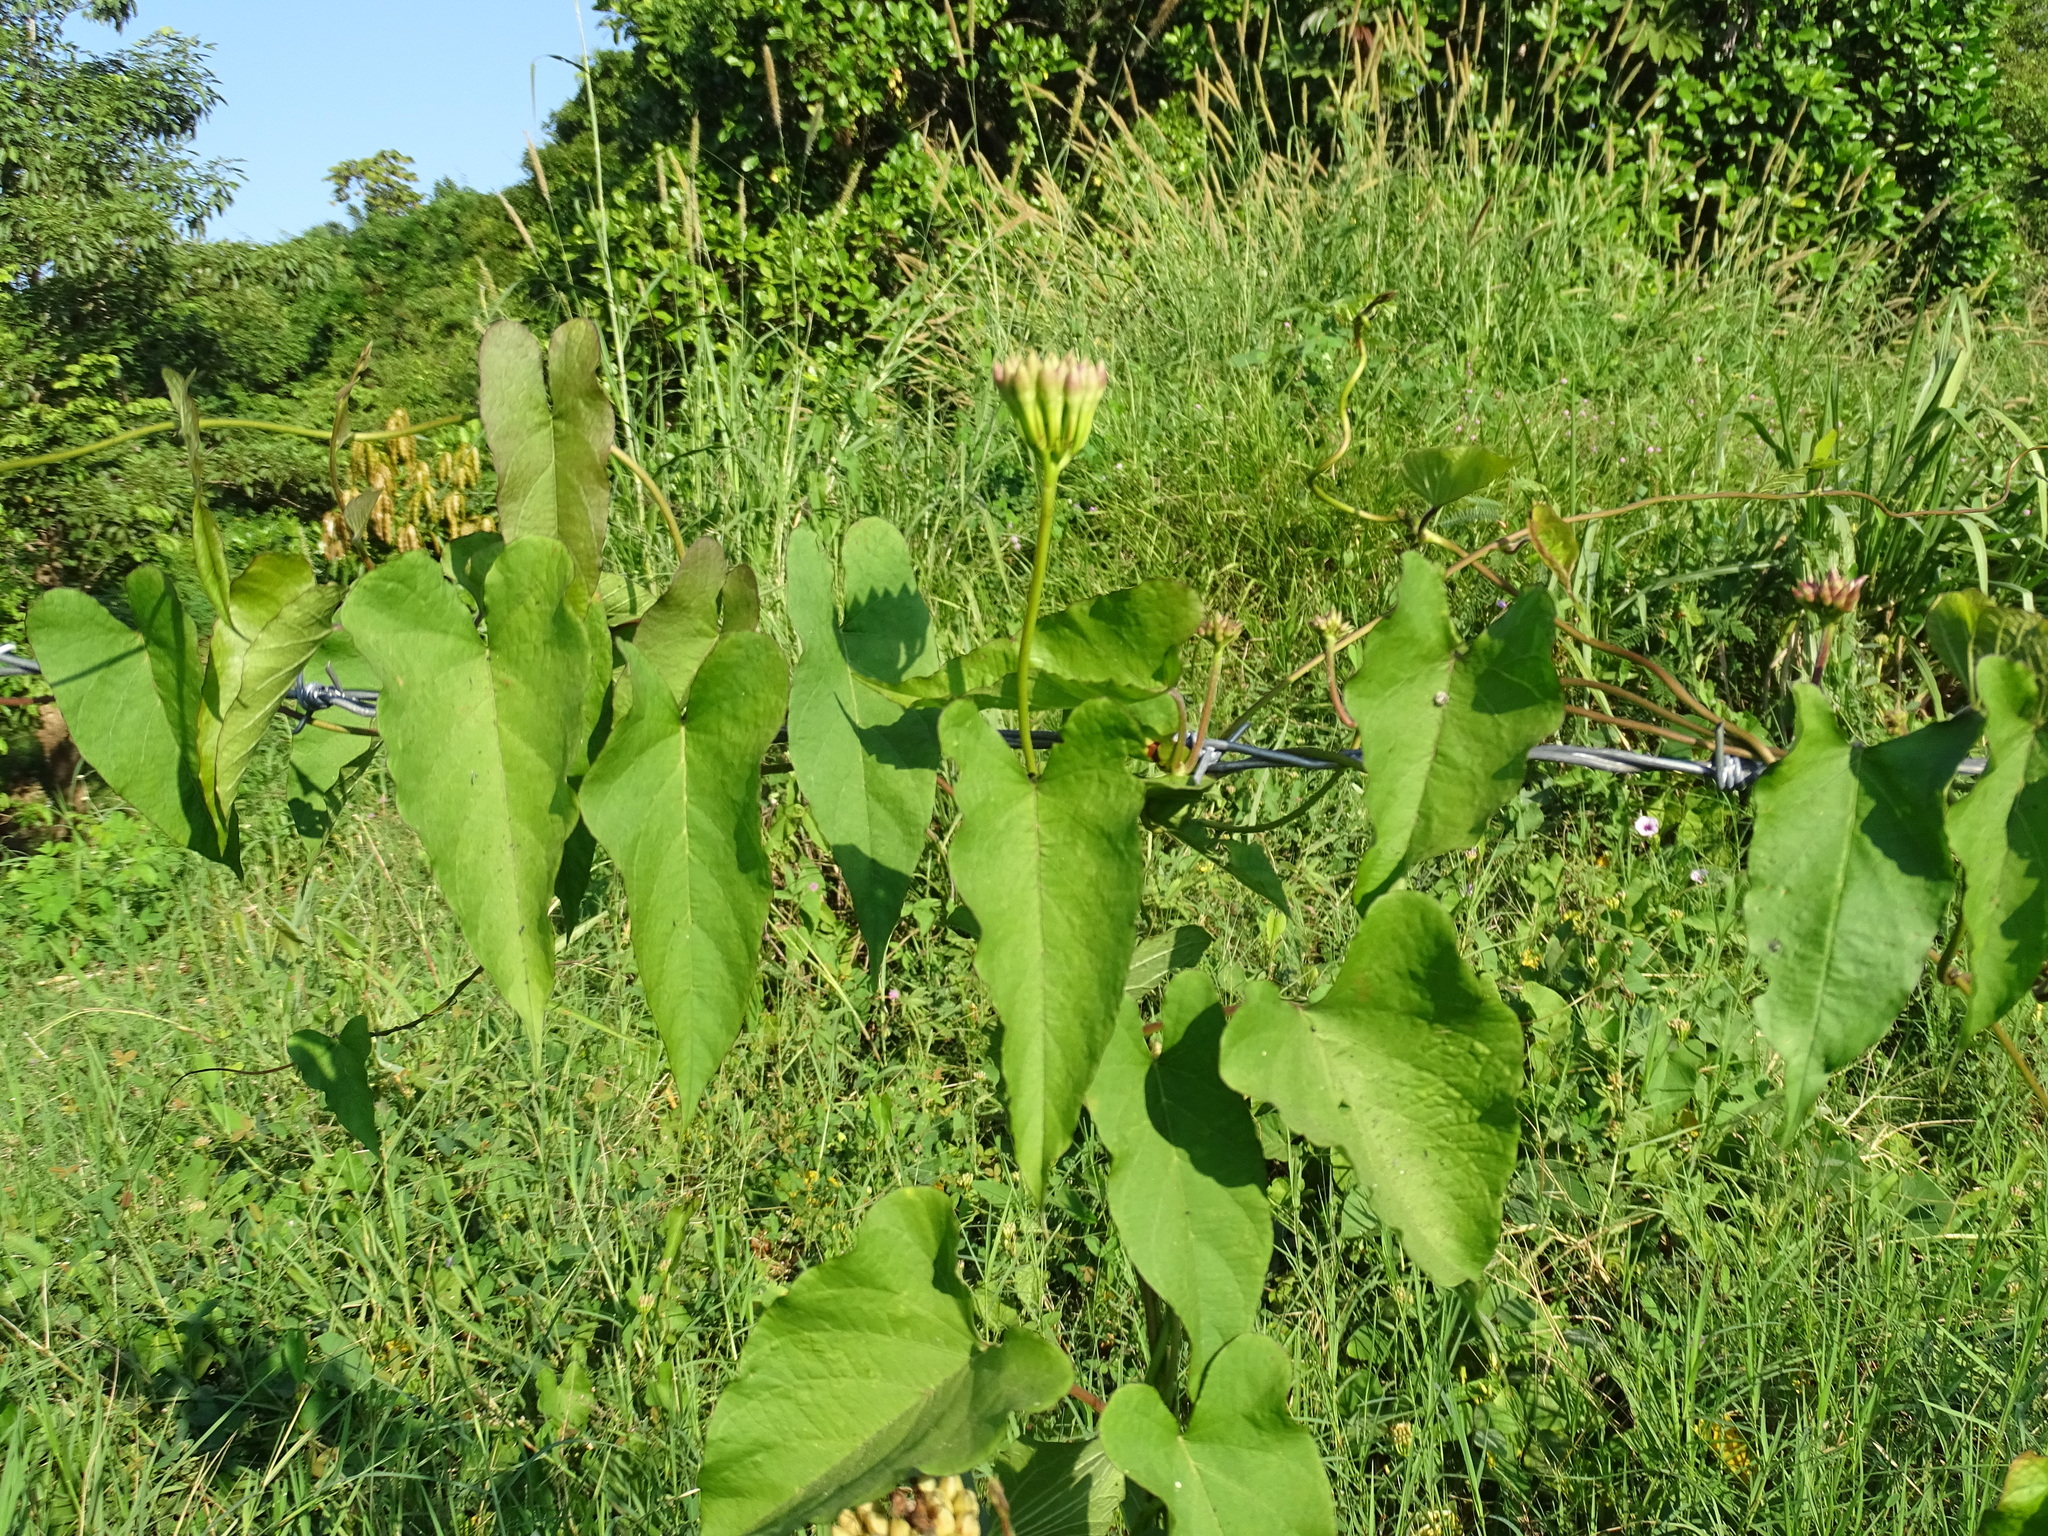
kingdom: Plantae
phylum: Tracheophyta
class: Magnoliopsida
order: Solanales
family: Convolvulaceae
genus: Camonea
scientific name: Camonea umbellata
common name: Hogvine
